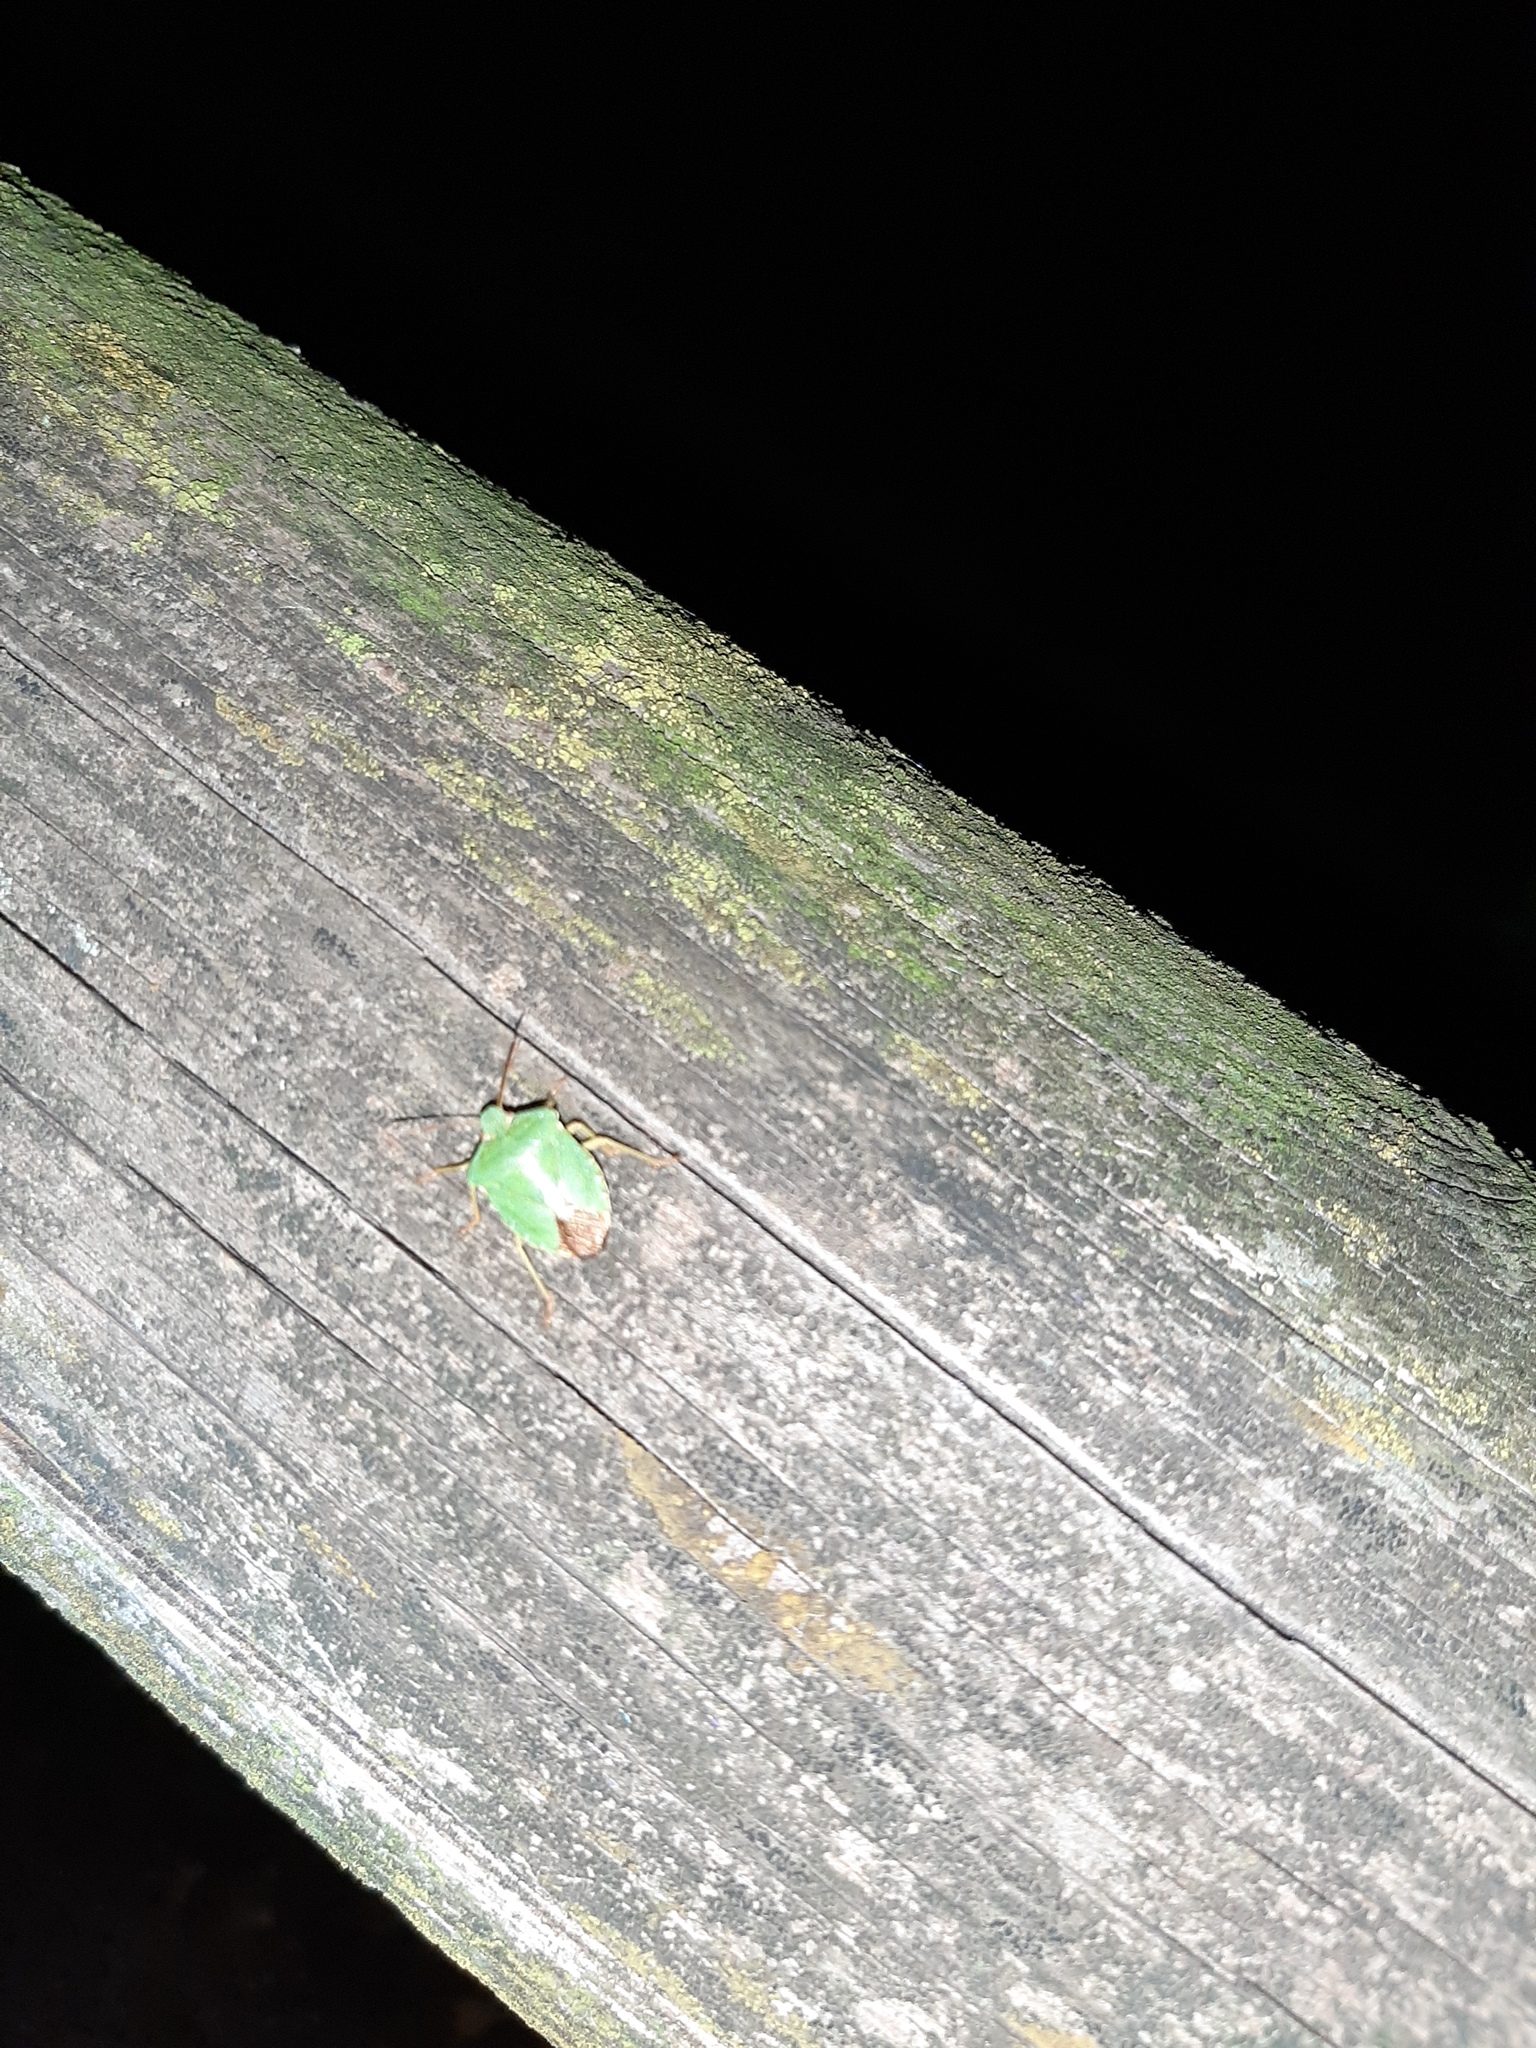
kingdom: Animalia
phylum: Arthropoda
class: Insecta
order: Hemiptera
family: Pentatomidae
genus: Palomena
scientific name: Palomena prasina
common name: Green shieldbug
